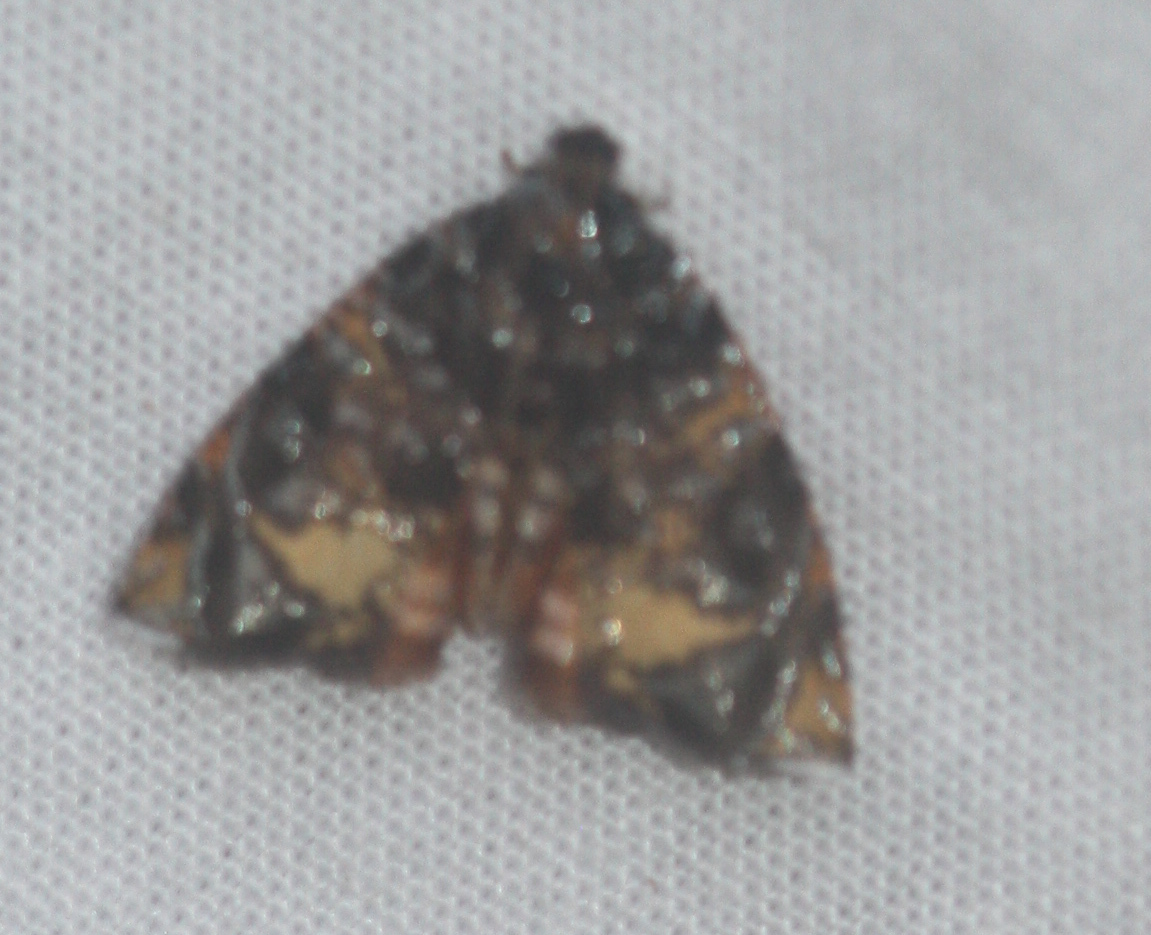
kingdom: Animalia
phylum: Arthropoda
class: Insecta
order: Lepidoptera
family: Tortricidae
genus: Mictopsichia
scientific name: Mictopsichia hubneriana
